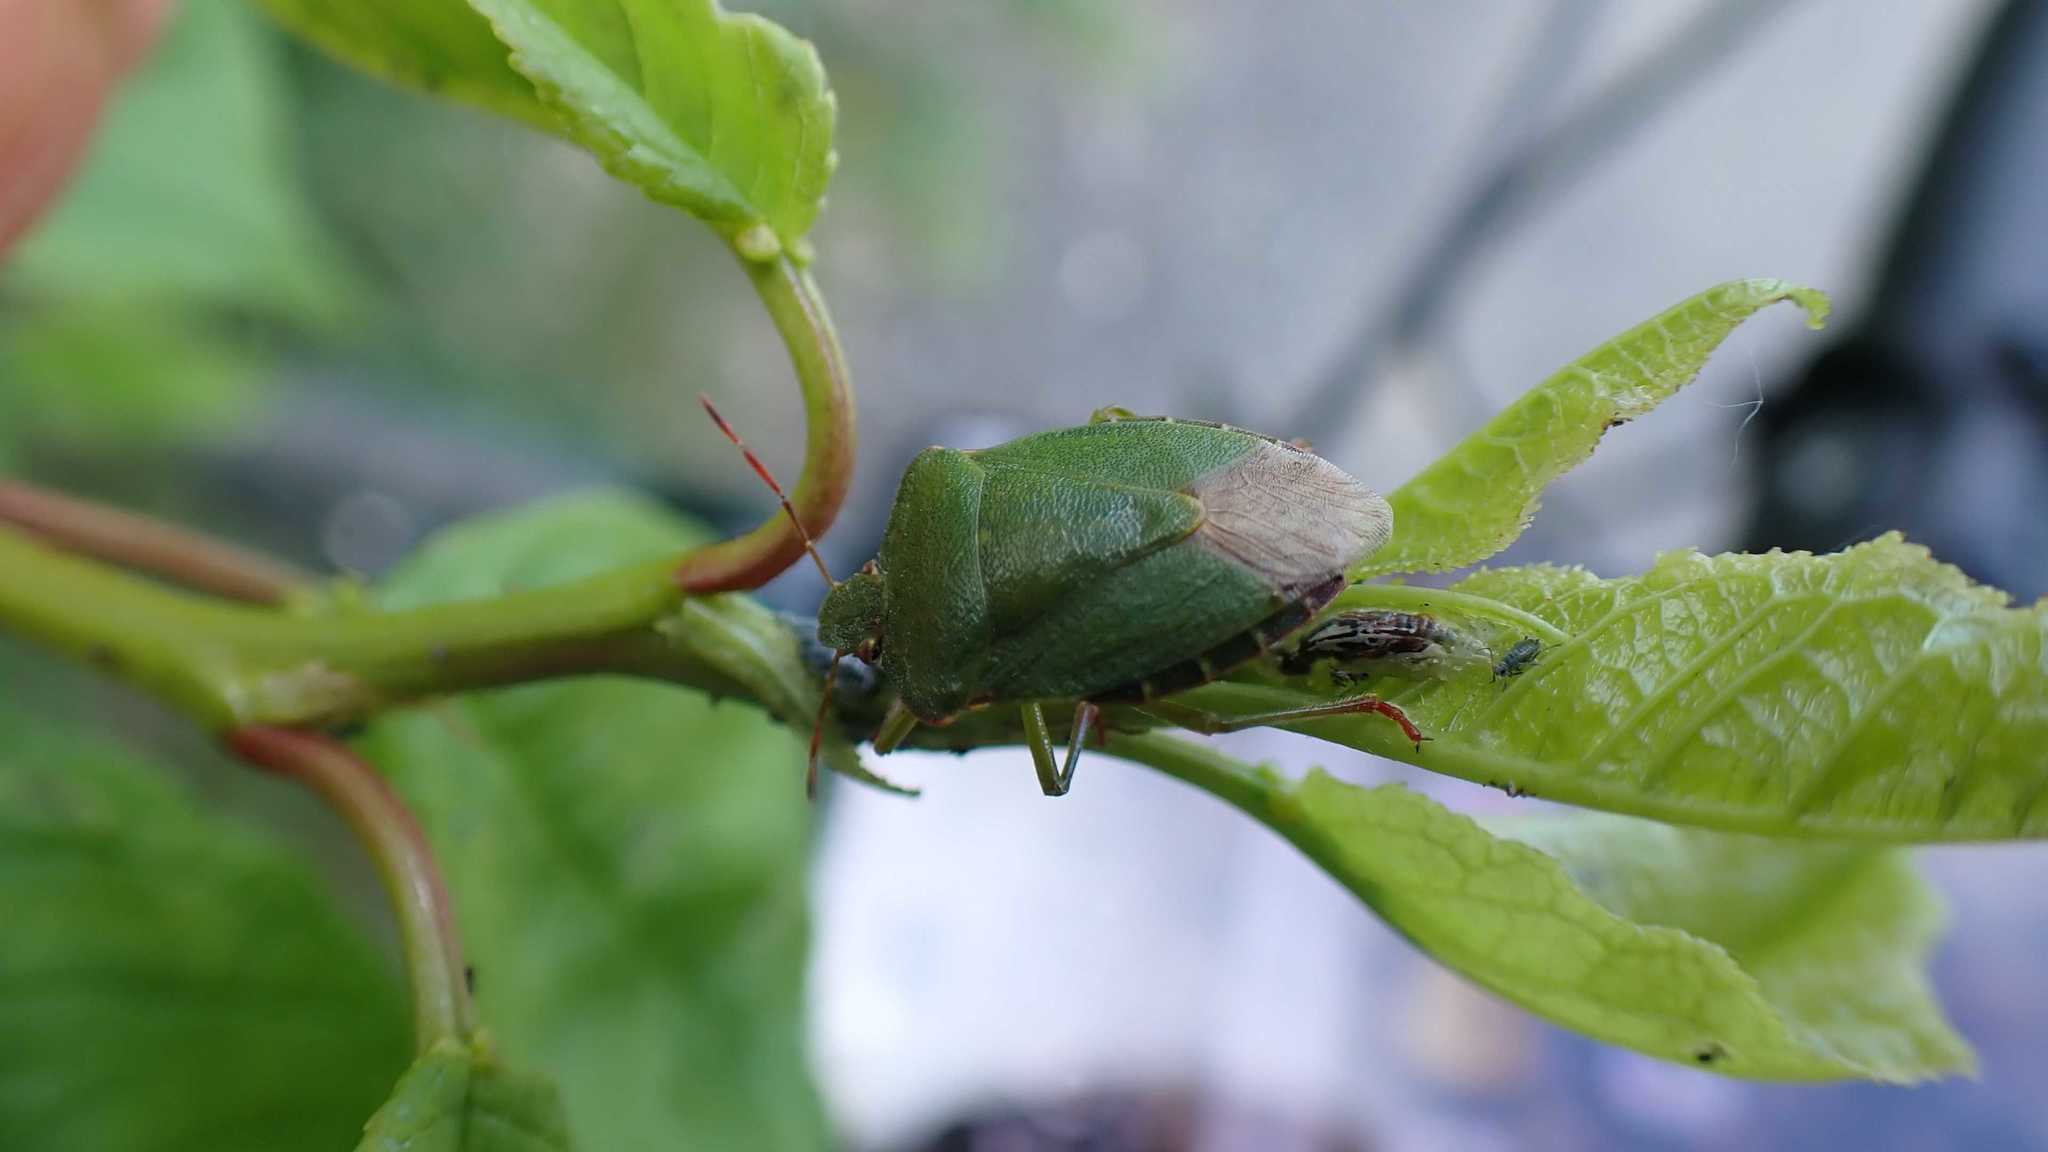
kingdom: Animalia
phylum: Arthropoda
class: Insecta
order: Hemiptera
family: Pentatomidae
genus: Palomena
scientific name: Palomena prasina
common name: Green shieldbug
